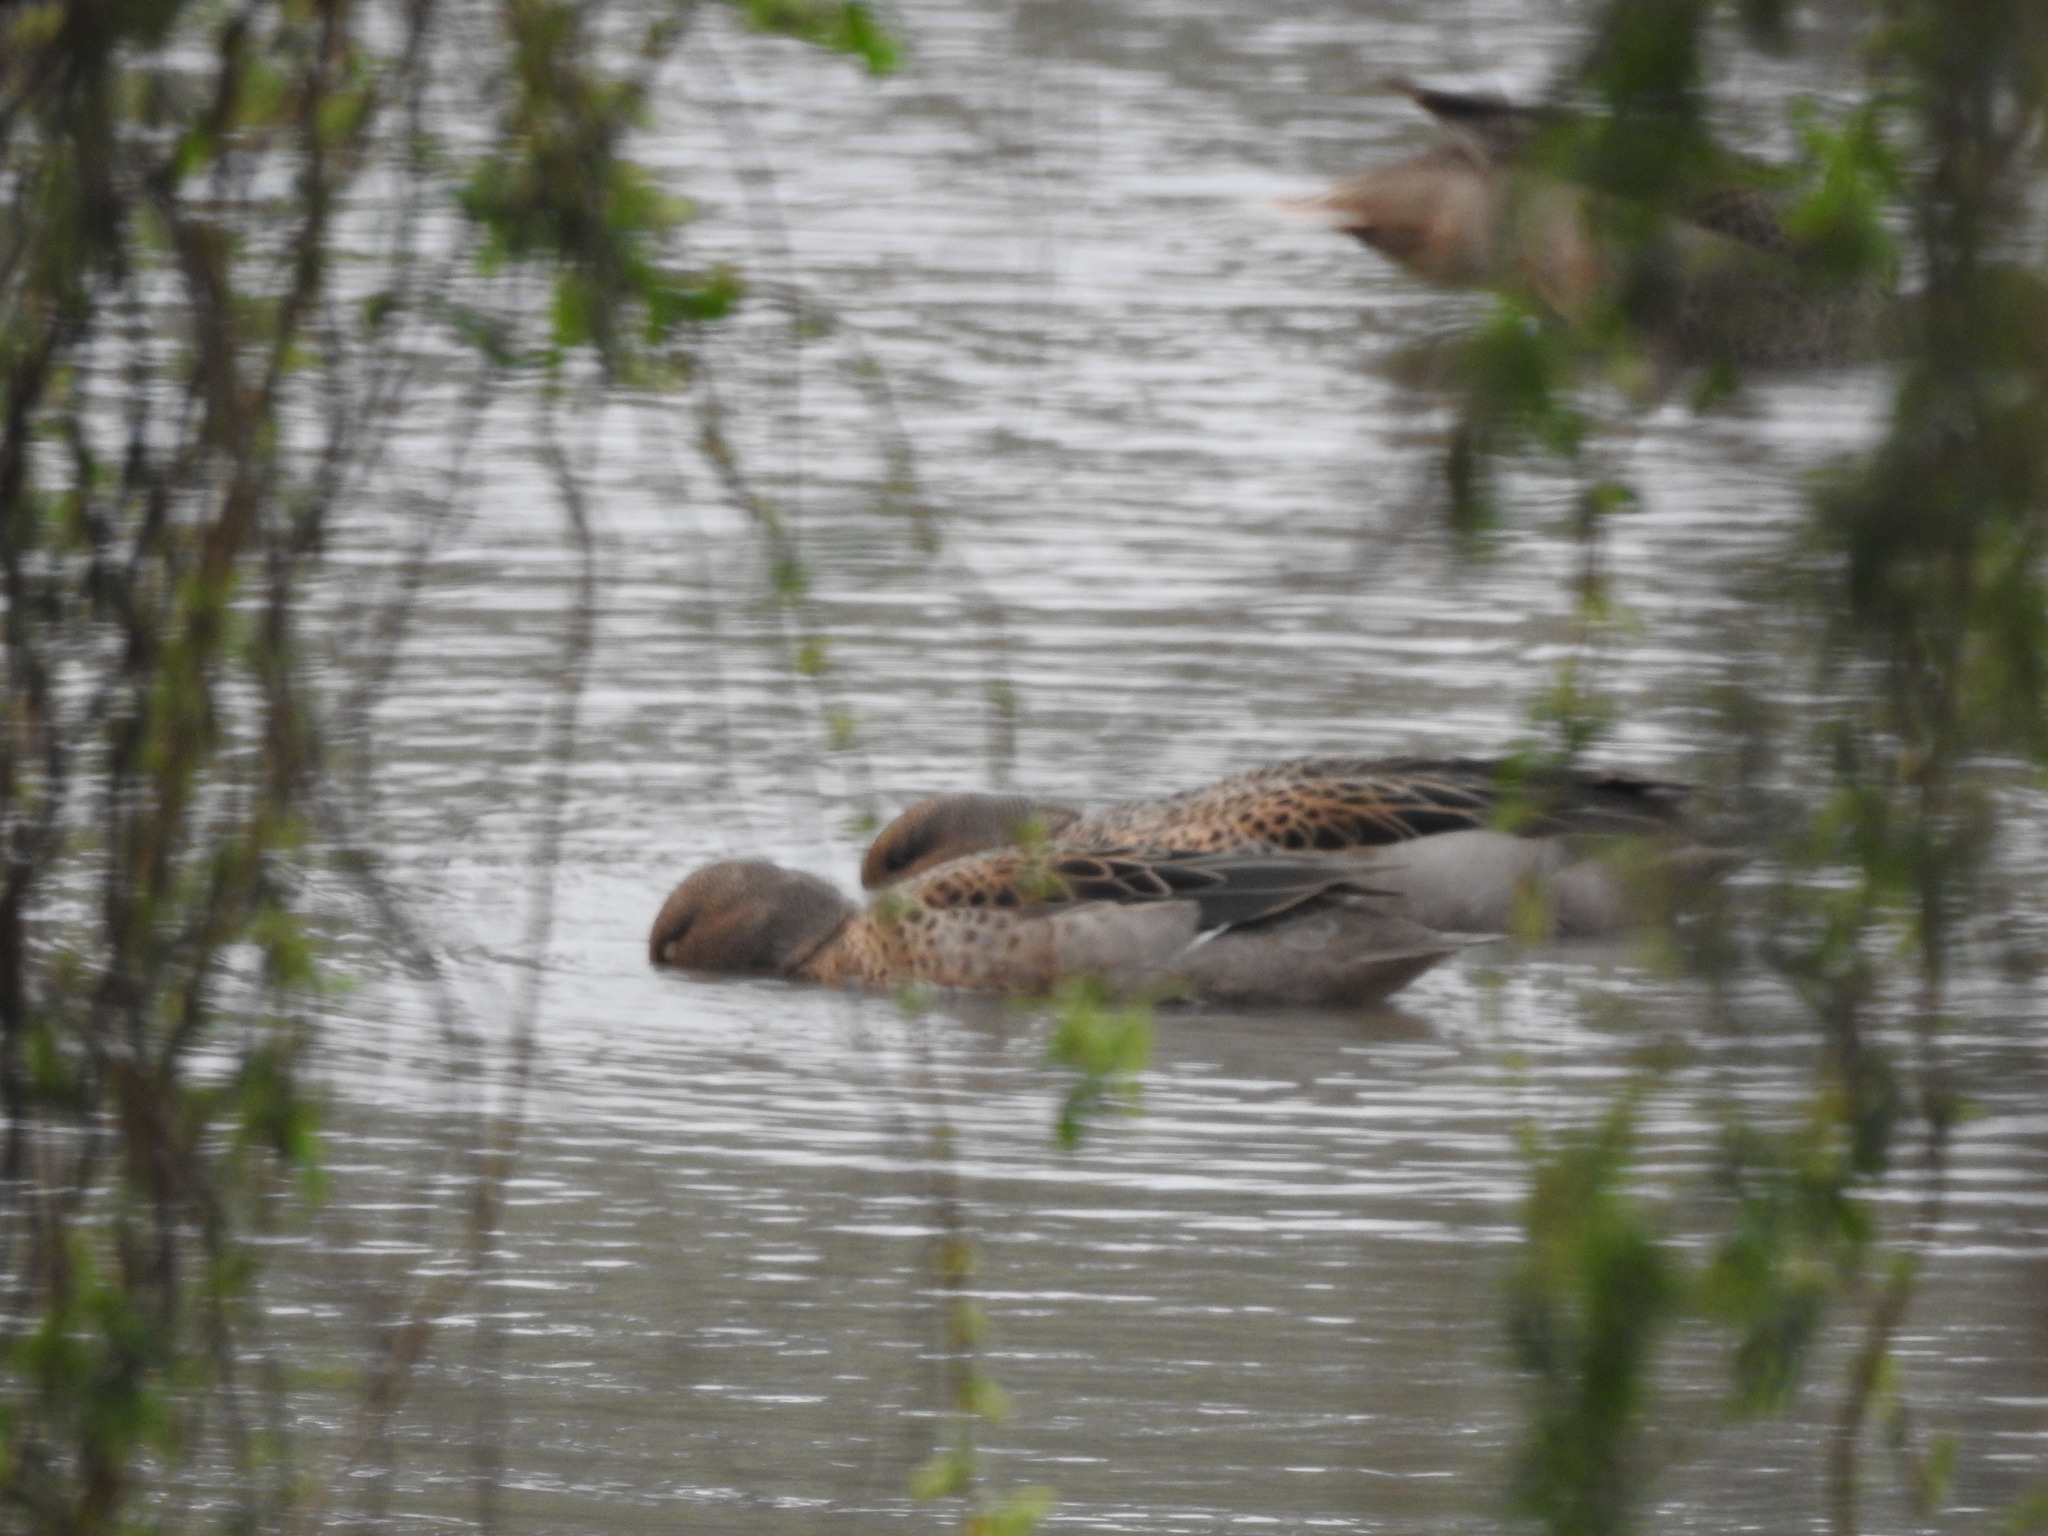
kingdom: Animalia
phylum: Chordata
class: Aves
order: Anseriformes
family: Anatidae
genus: Anas
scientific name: Anas flavirostris
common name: Yellow-billed teal
